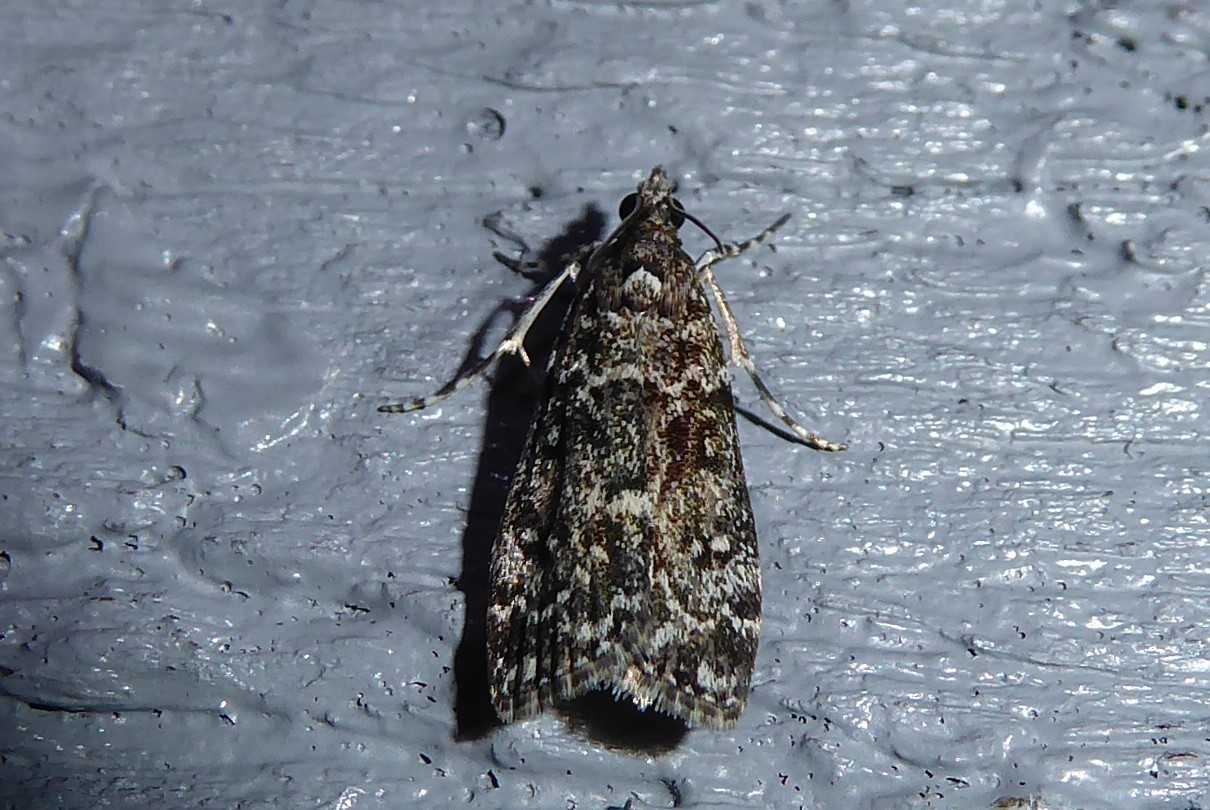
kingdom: Animalia
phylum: Arthropoda
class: Insecta
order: Lepidoptera
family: Crambidae
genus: Eudonia
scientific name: Eudonia philerga
